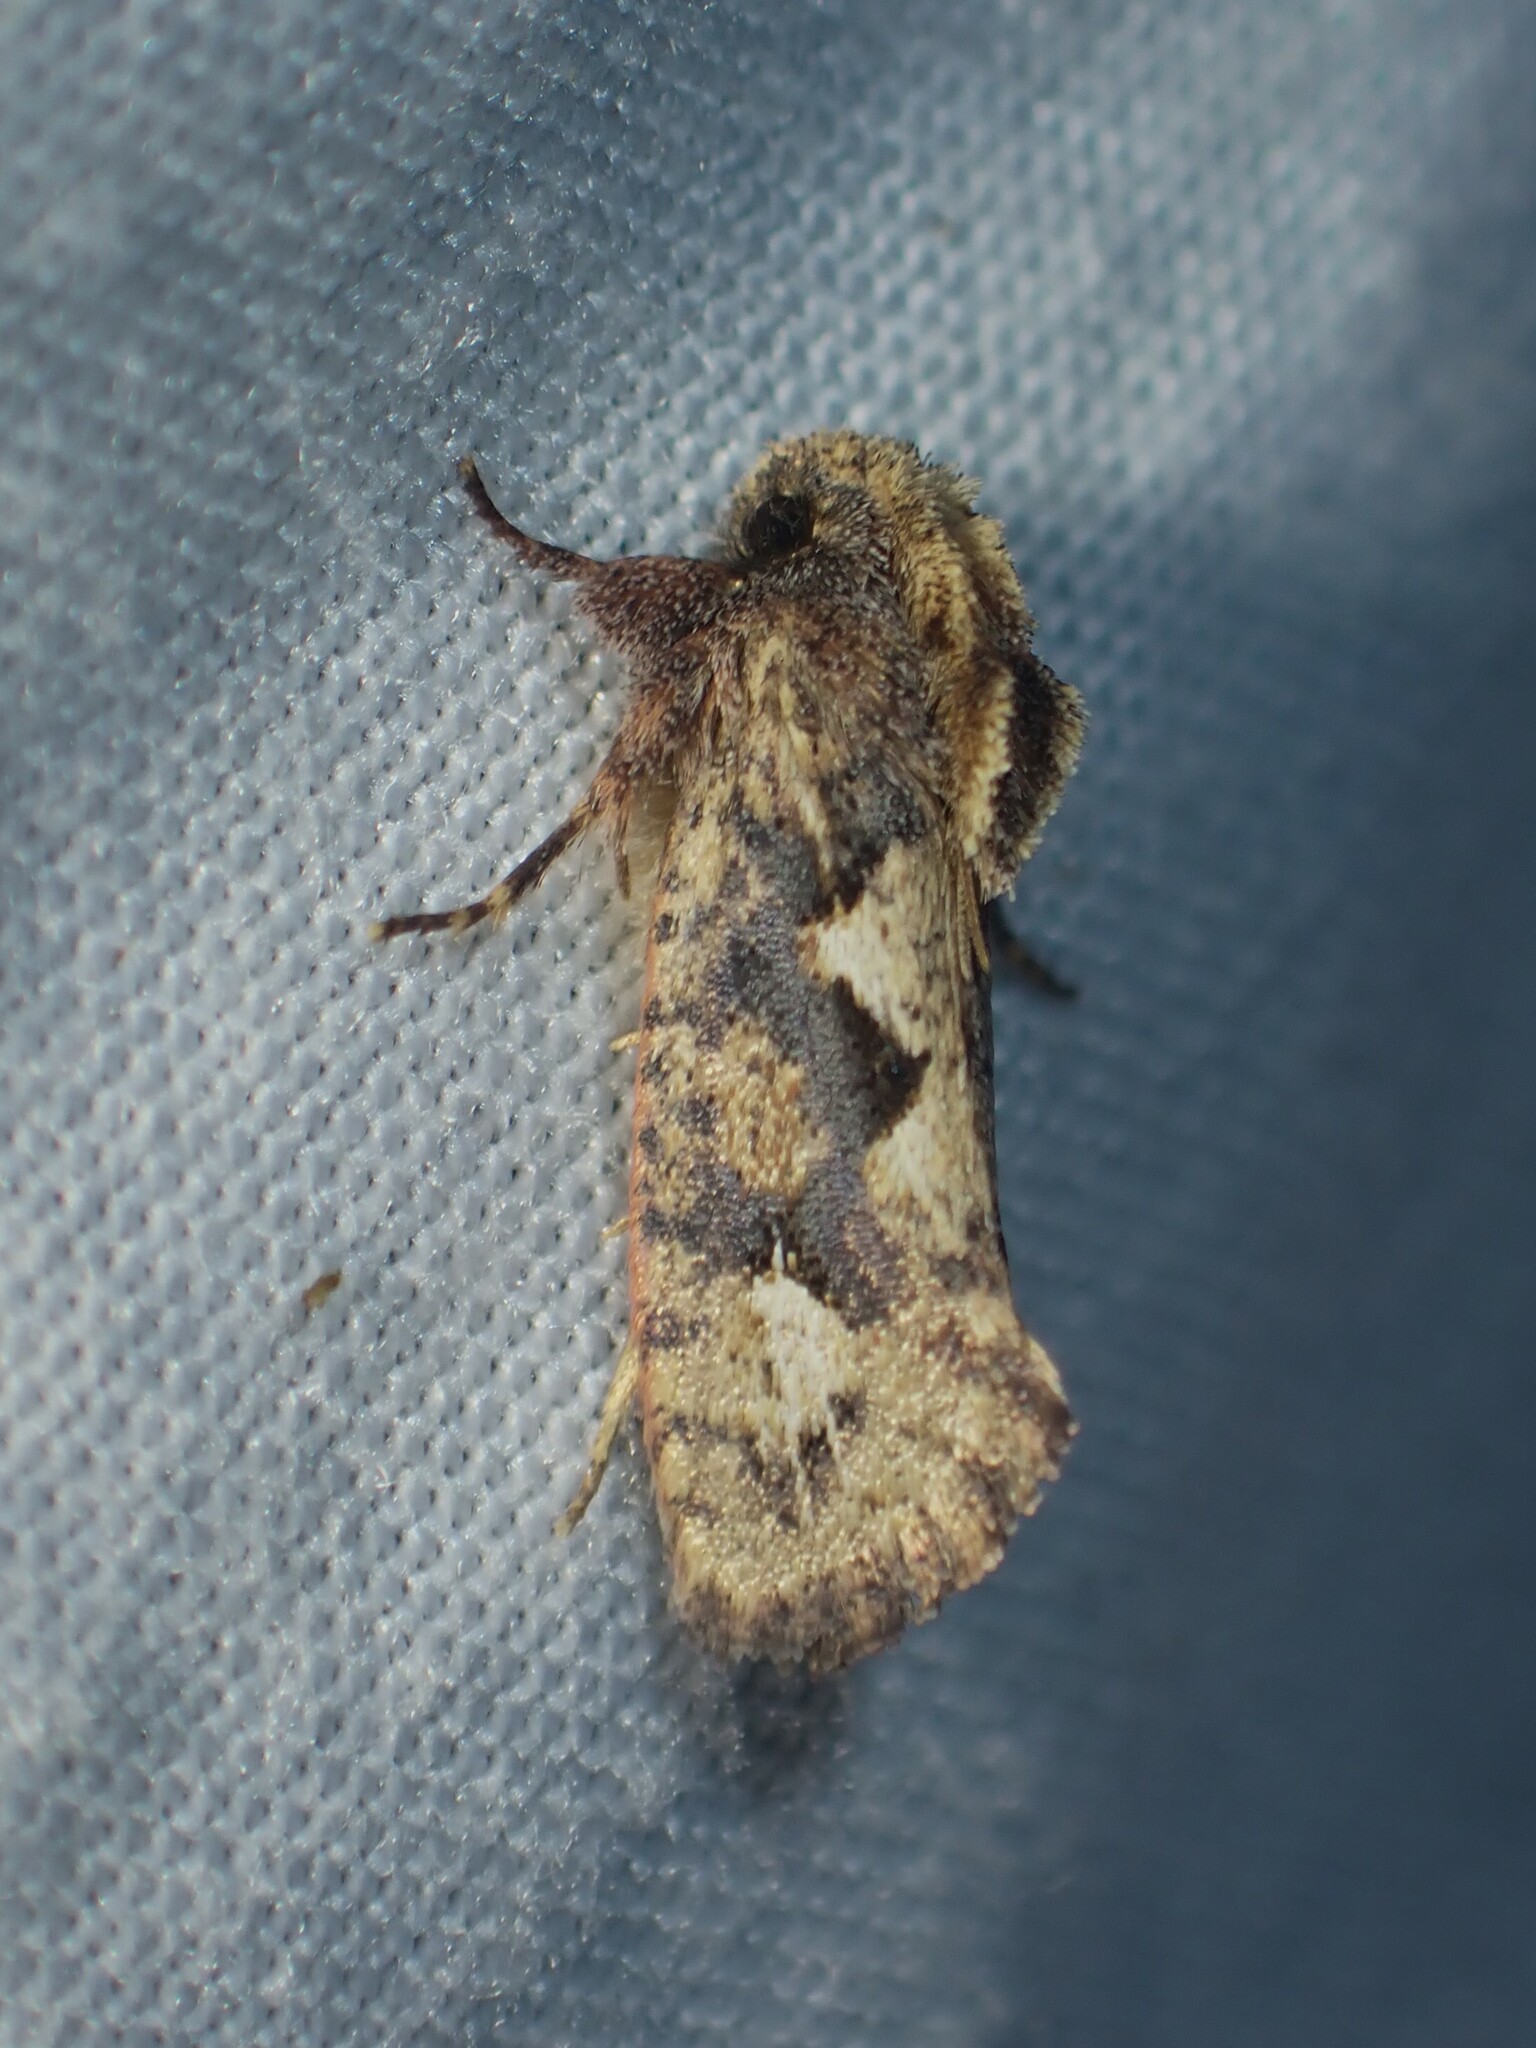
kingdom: Animalia
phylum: Arthropoda
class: Insecta
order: Lepidoptera
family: Tineidae
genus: Acrolophus
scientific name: Acrolophus walsinghami
